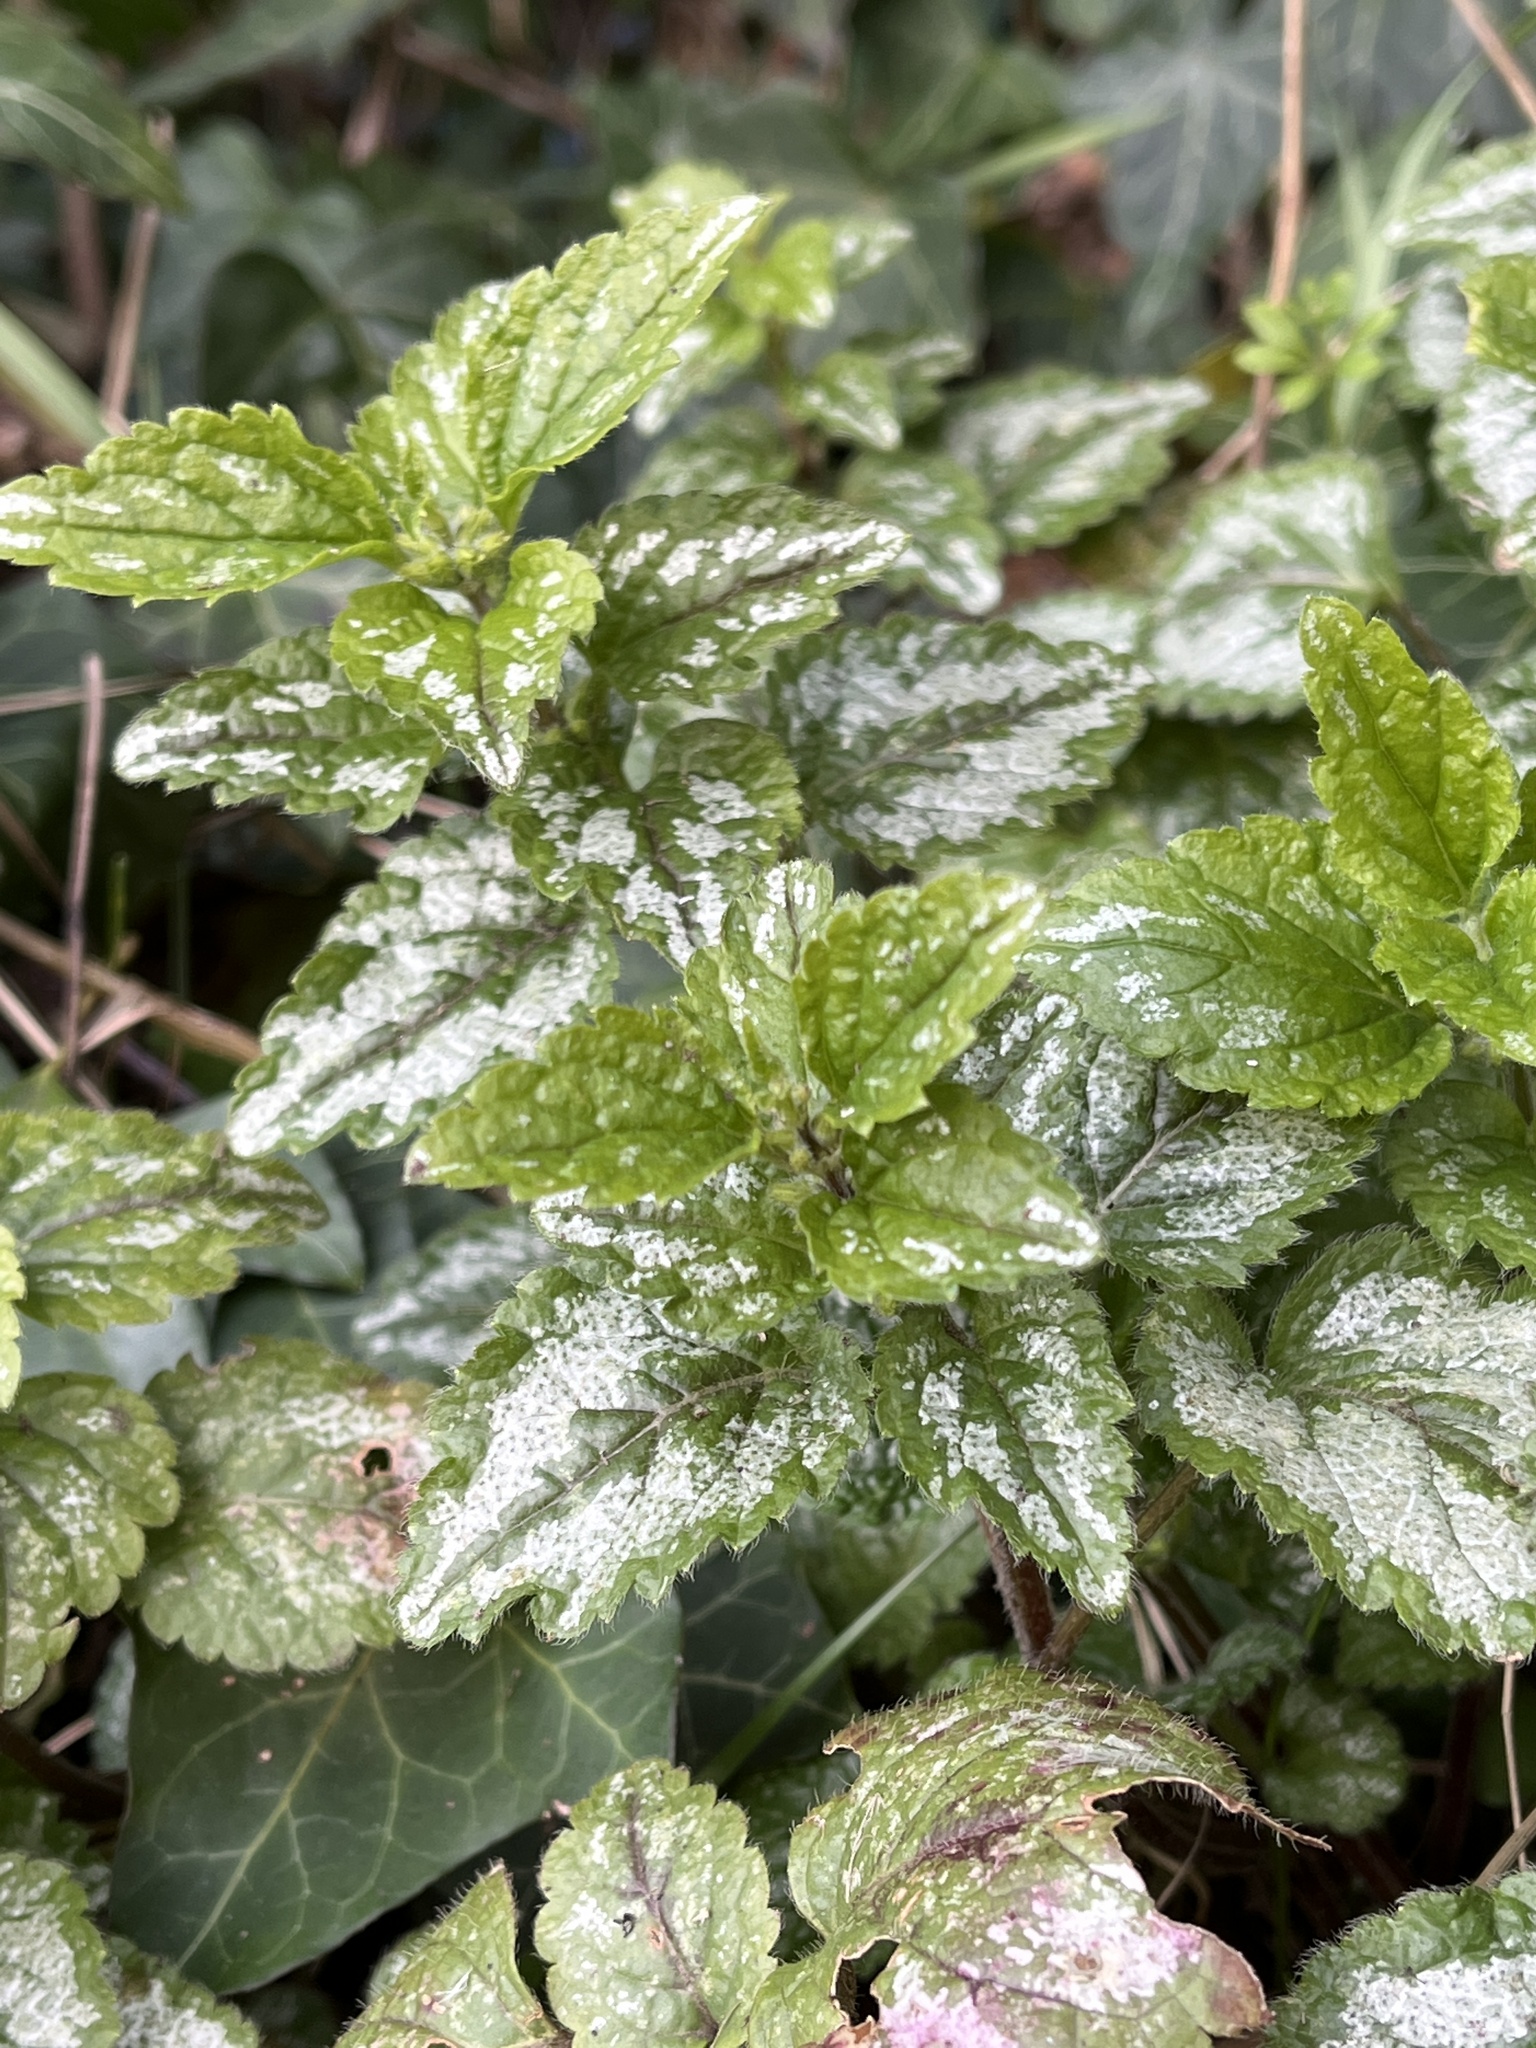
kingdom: Plantae
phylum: Tracheophyta
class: Magnoliopsida
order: Lamiales
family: Lamiaceae
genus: Lamium
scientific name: Lamium galeobdolon
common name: Yellow archangel
